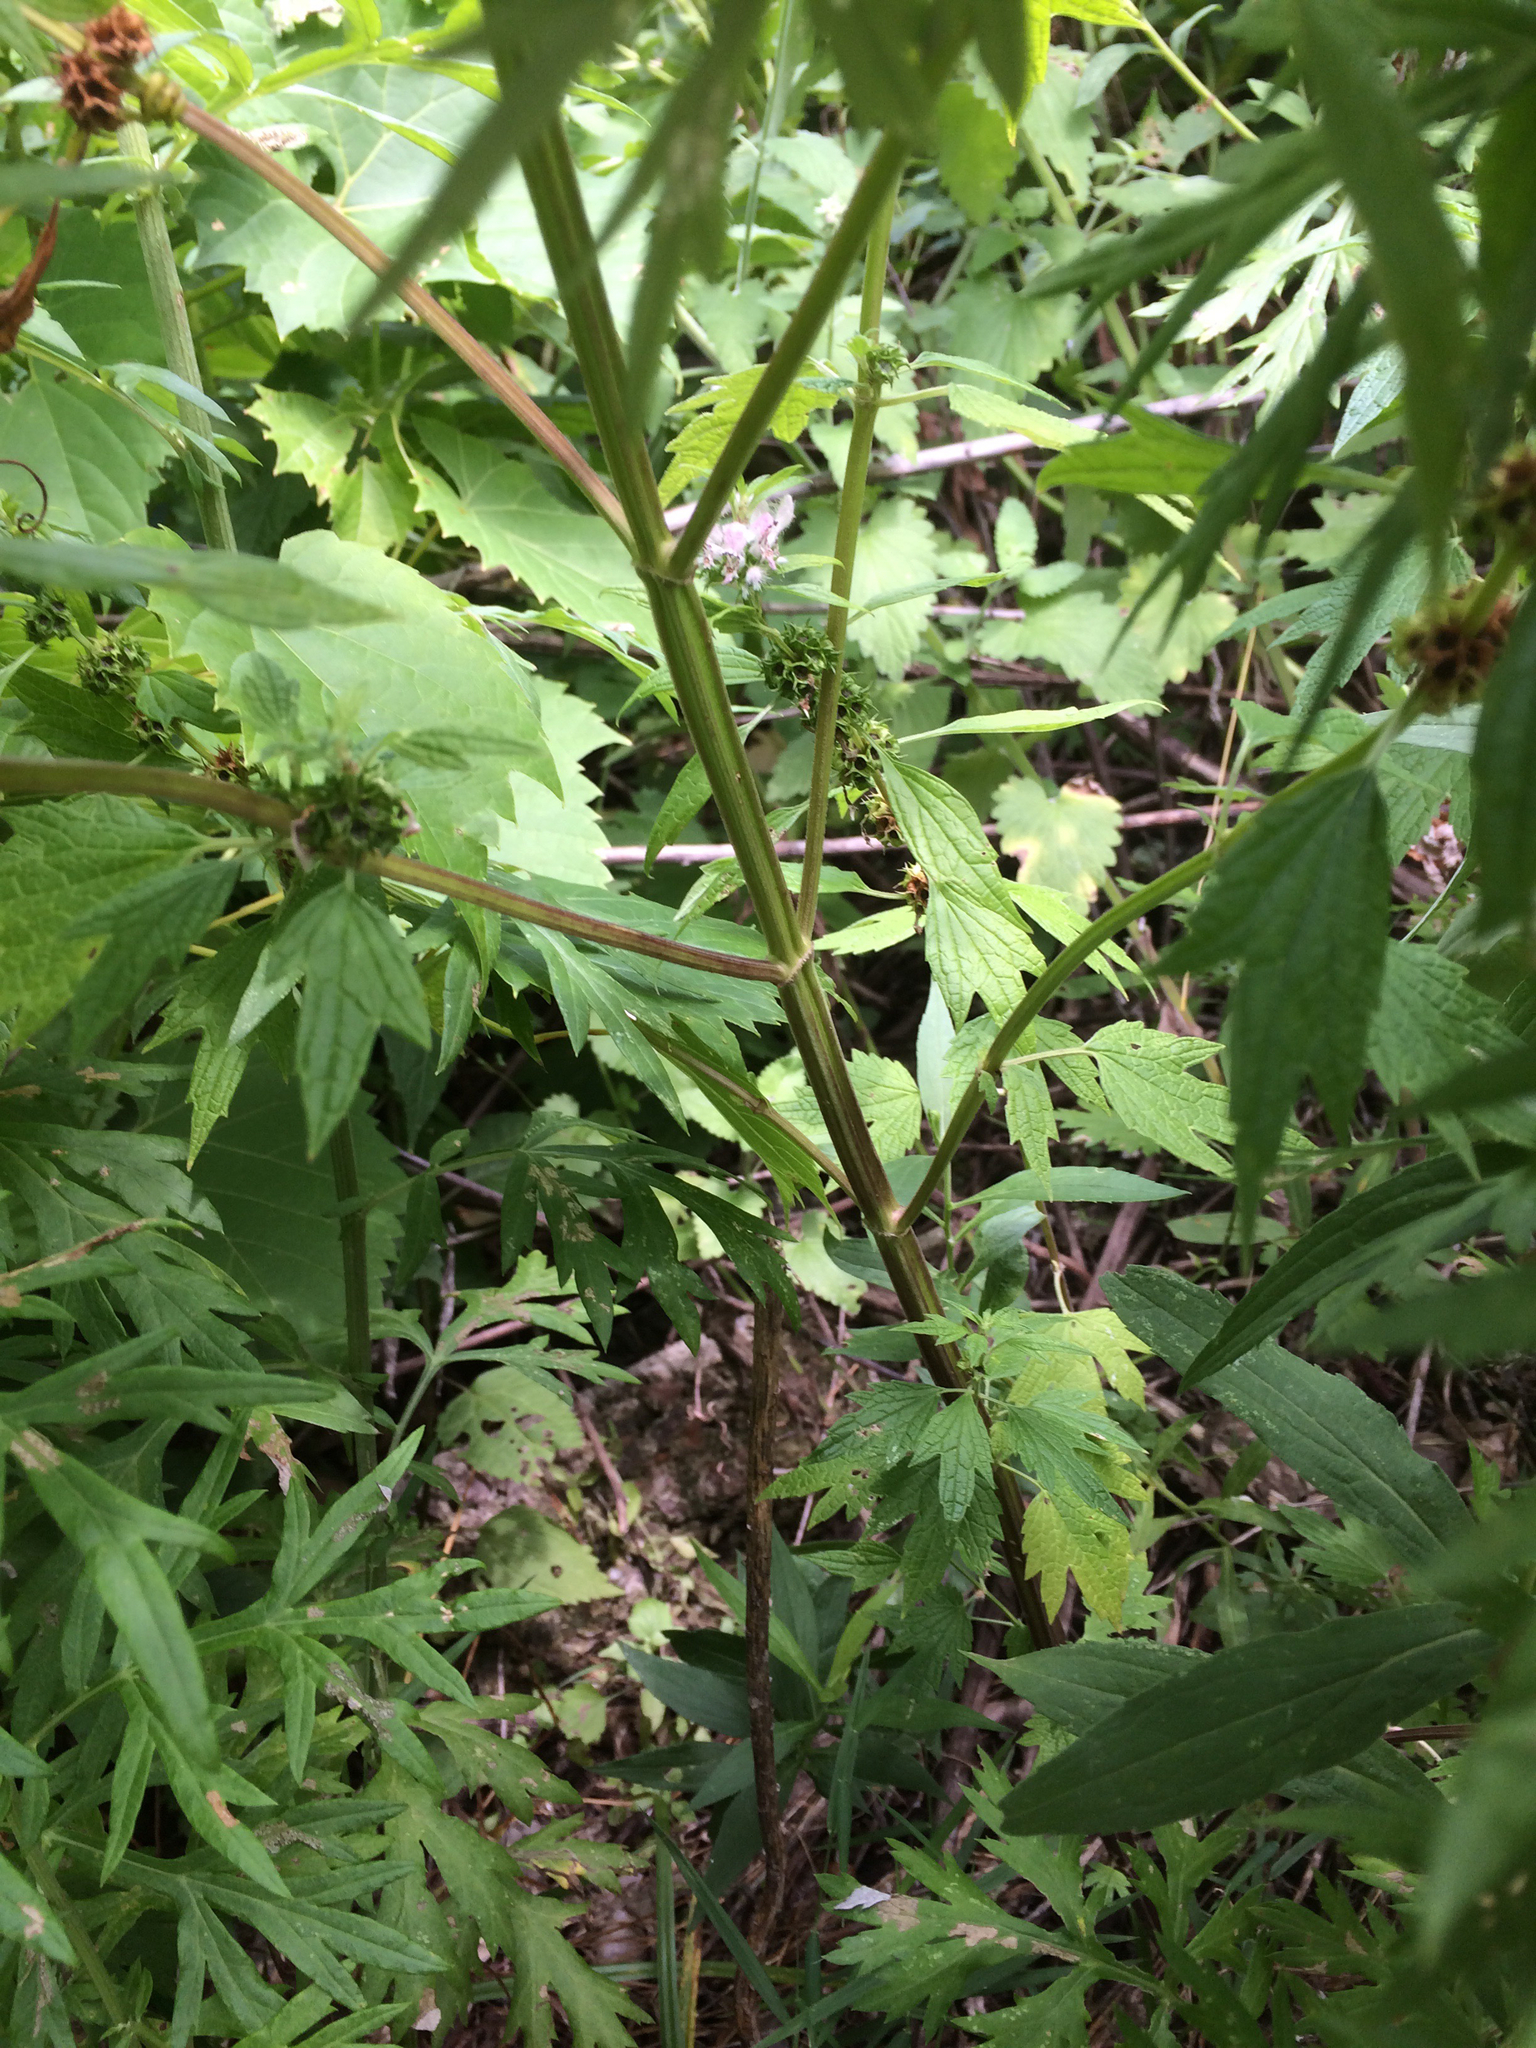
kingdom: Plantae
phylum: Tracheophyta
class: Magnoliopsida
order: Lamiales
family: Lamiaceae
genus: Leonurus
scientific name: Leonurus cardiaca
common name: Motherwort
